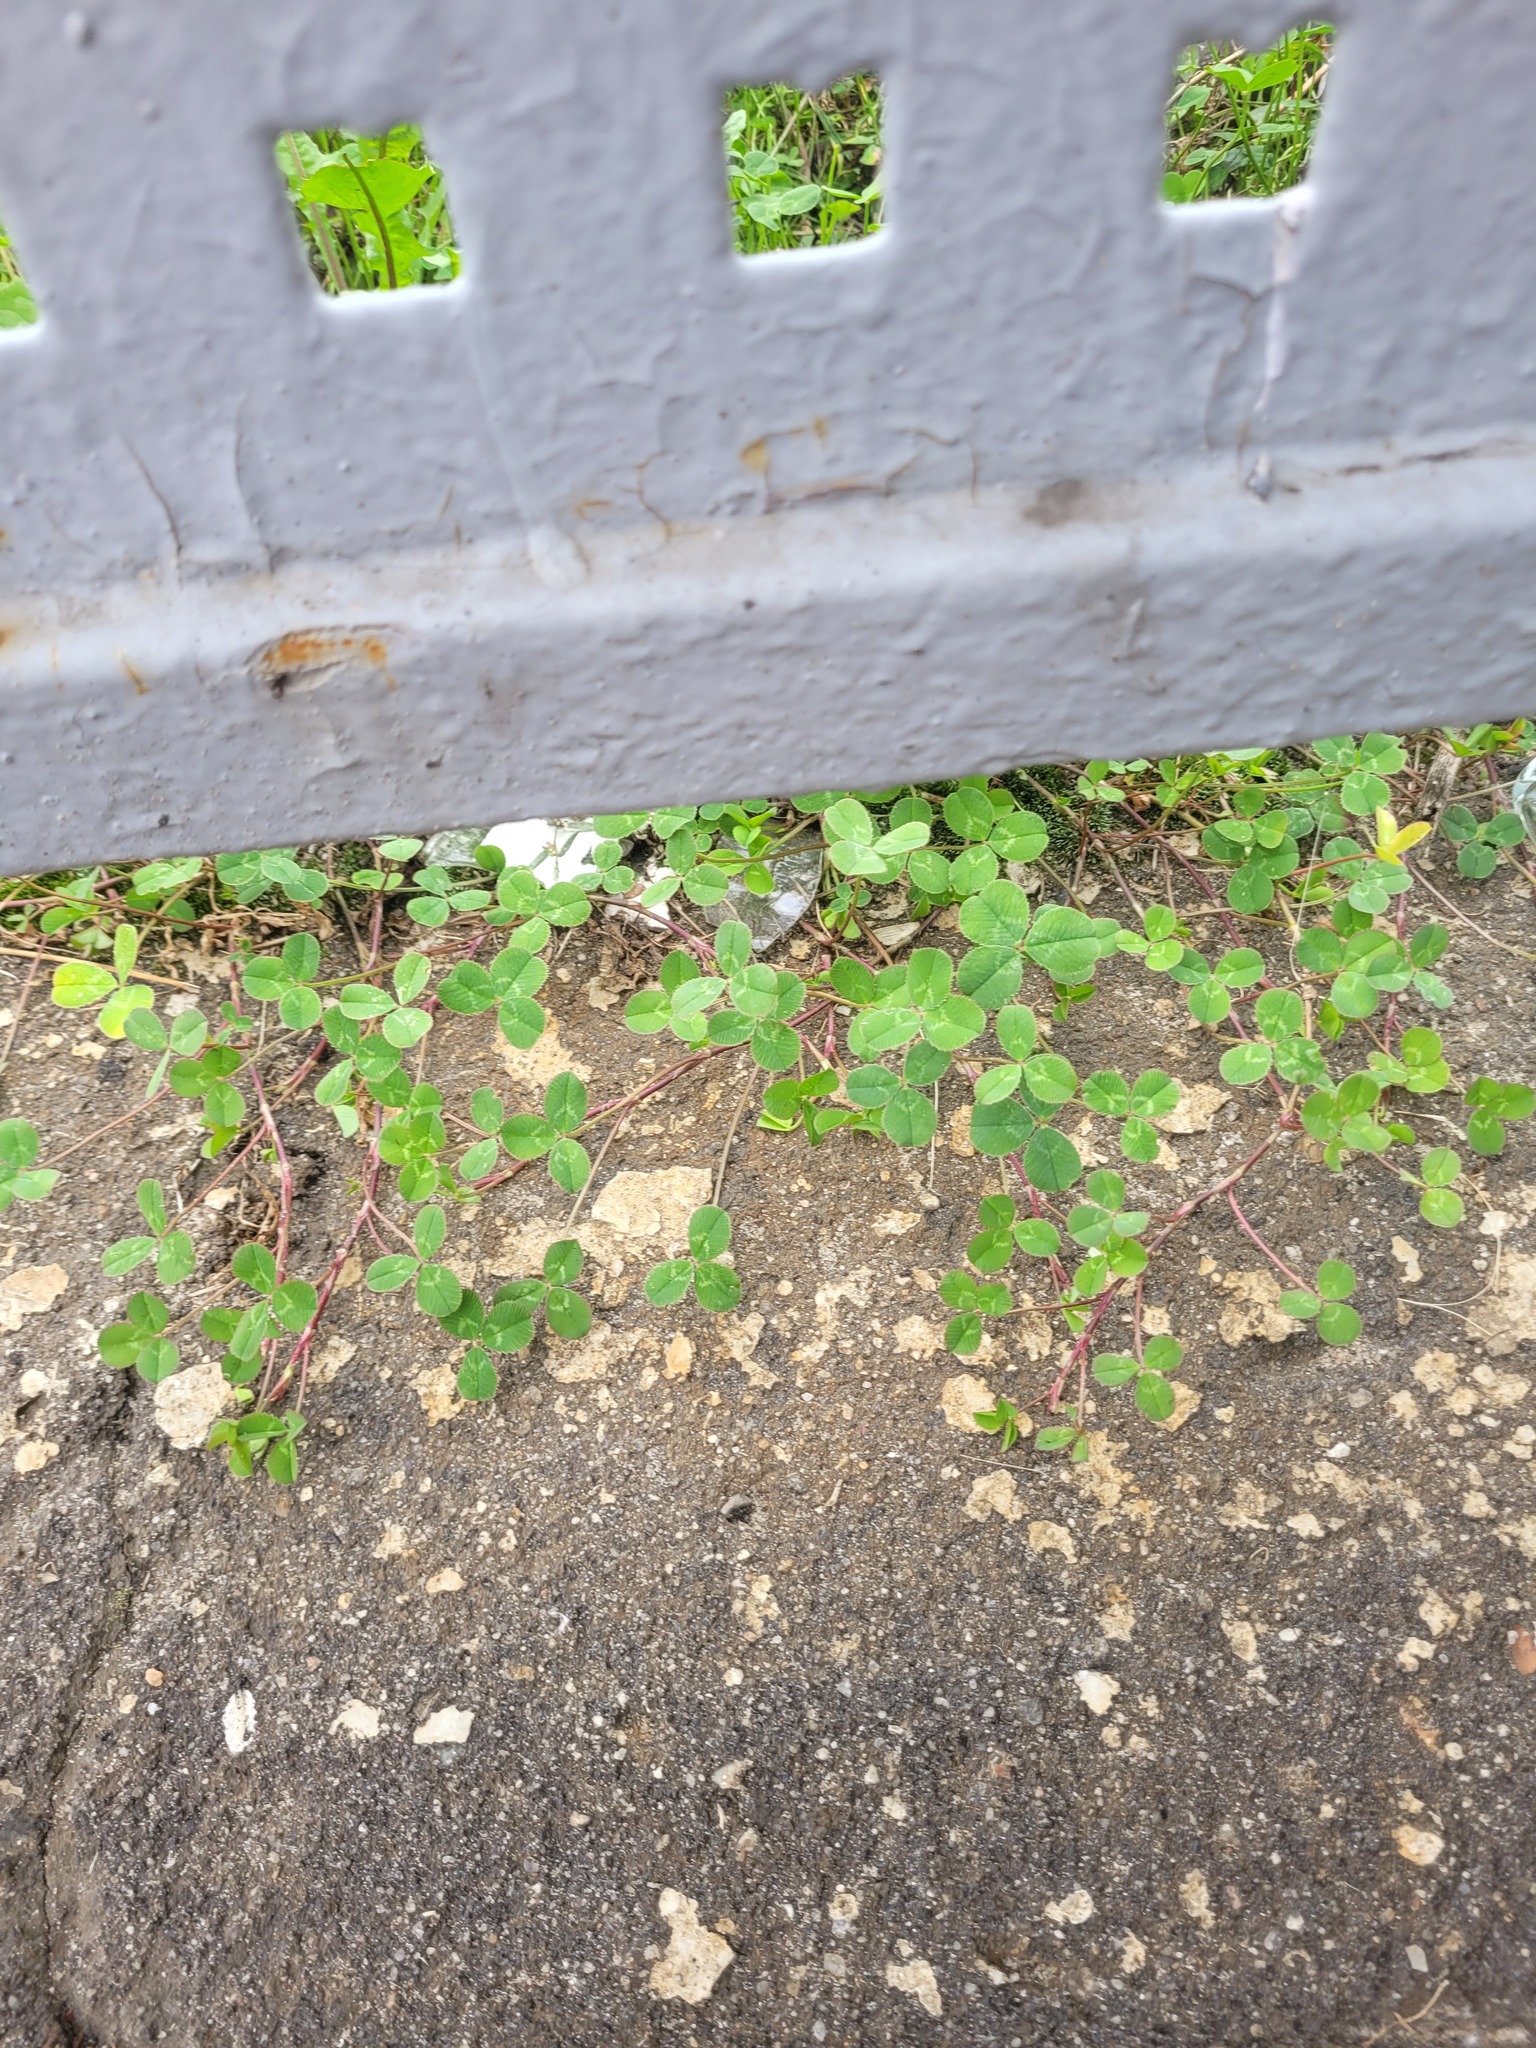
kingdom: Plantae
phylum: Tracheophyta
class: Magnoliopsida
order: Fabales
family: Fabaceae
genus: Trifolium
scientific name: Trifolium repens
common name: White clover
